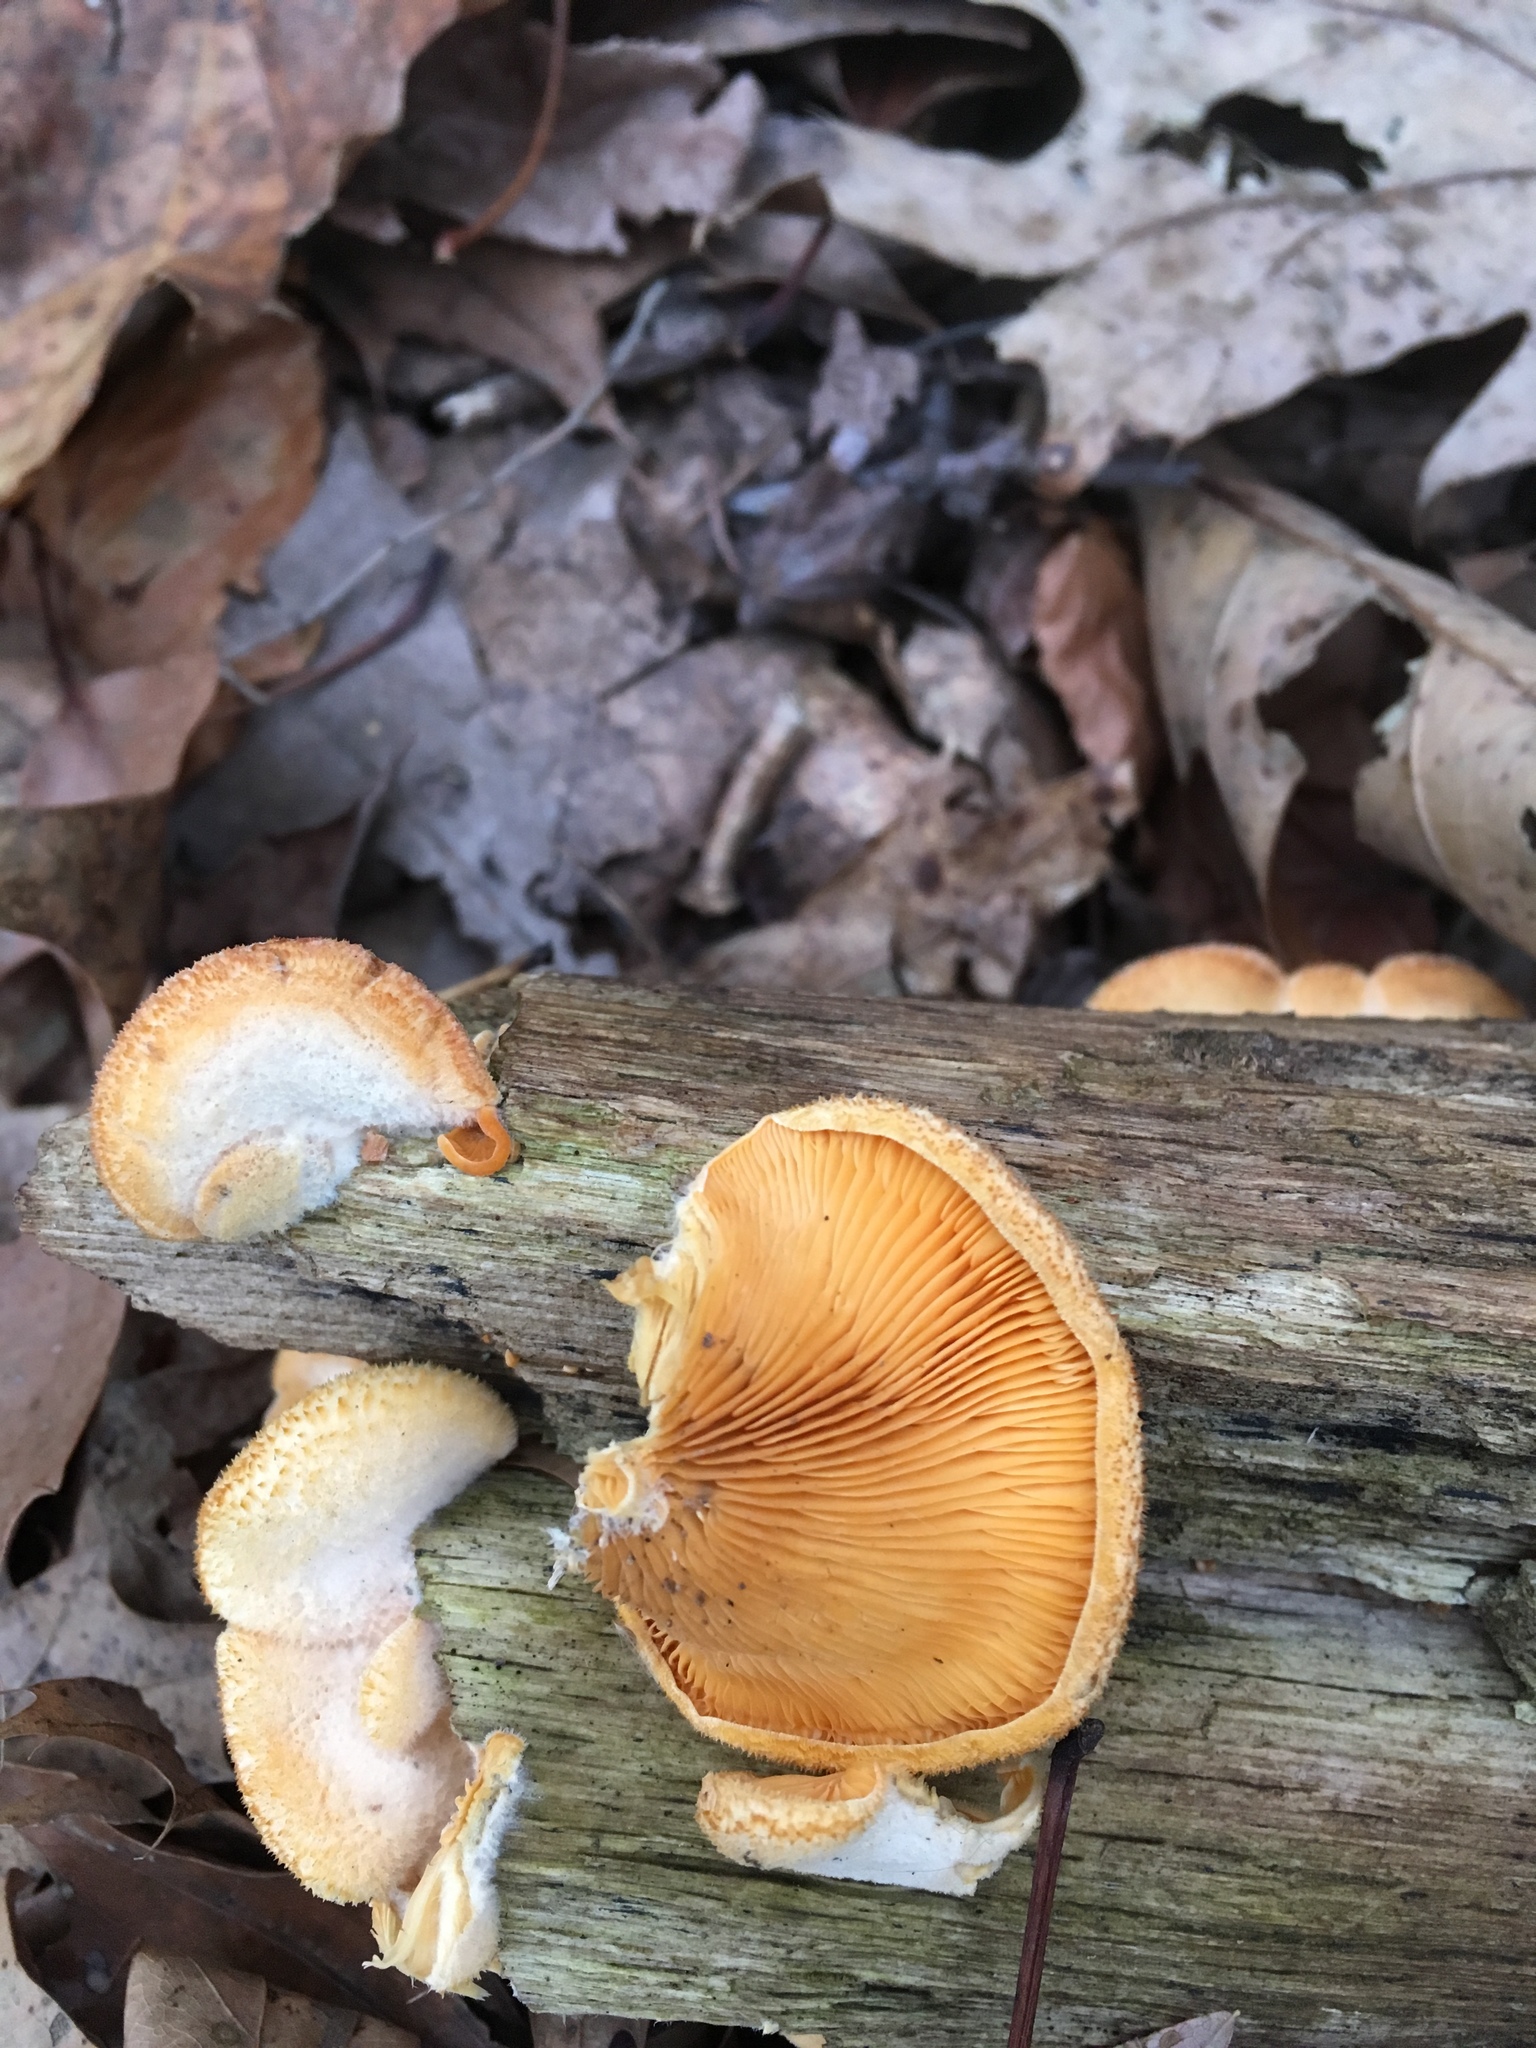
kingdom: Fungi
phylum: Basidiomycota
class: Agaricomycetes
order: Agaricales
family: Phyllotopsidaceae
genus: Phyllotopsis
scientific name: Phyllotopsis nidulans
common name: Orange mock oyster
